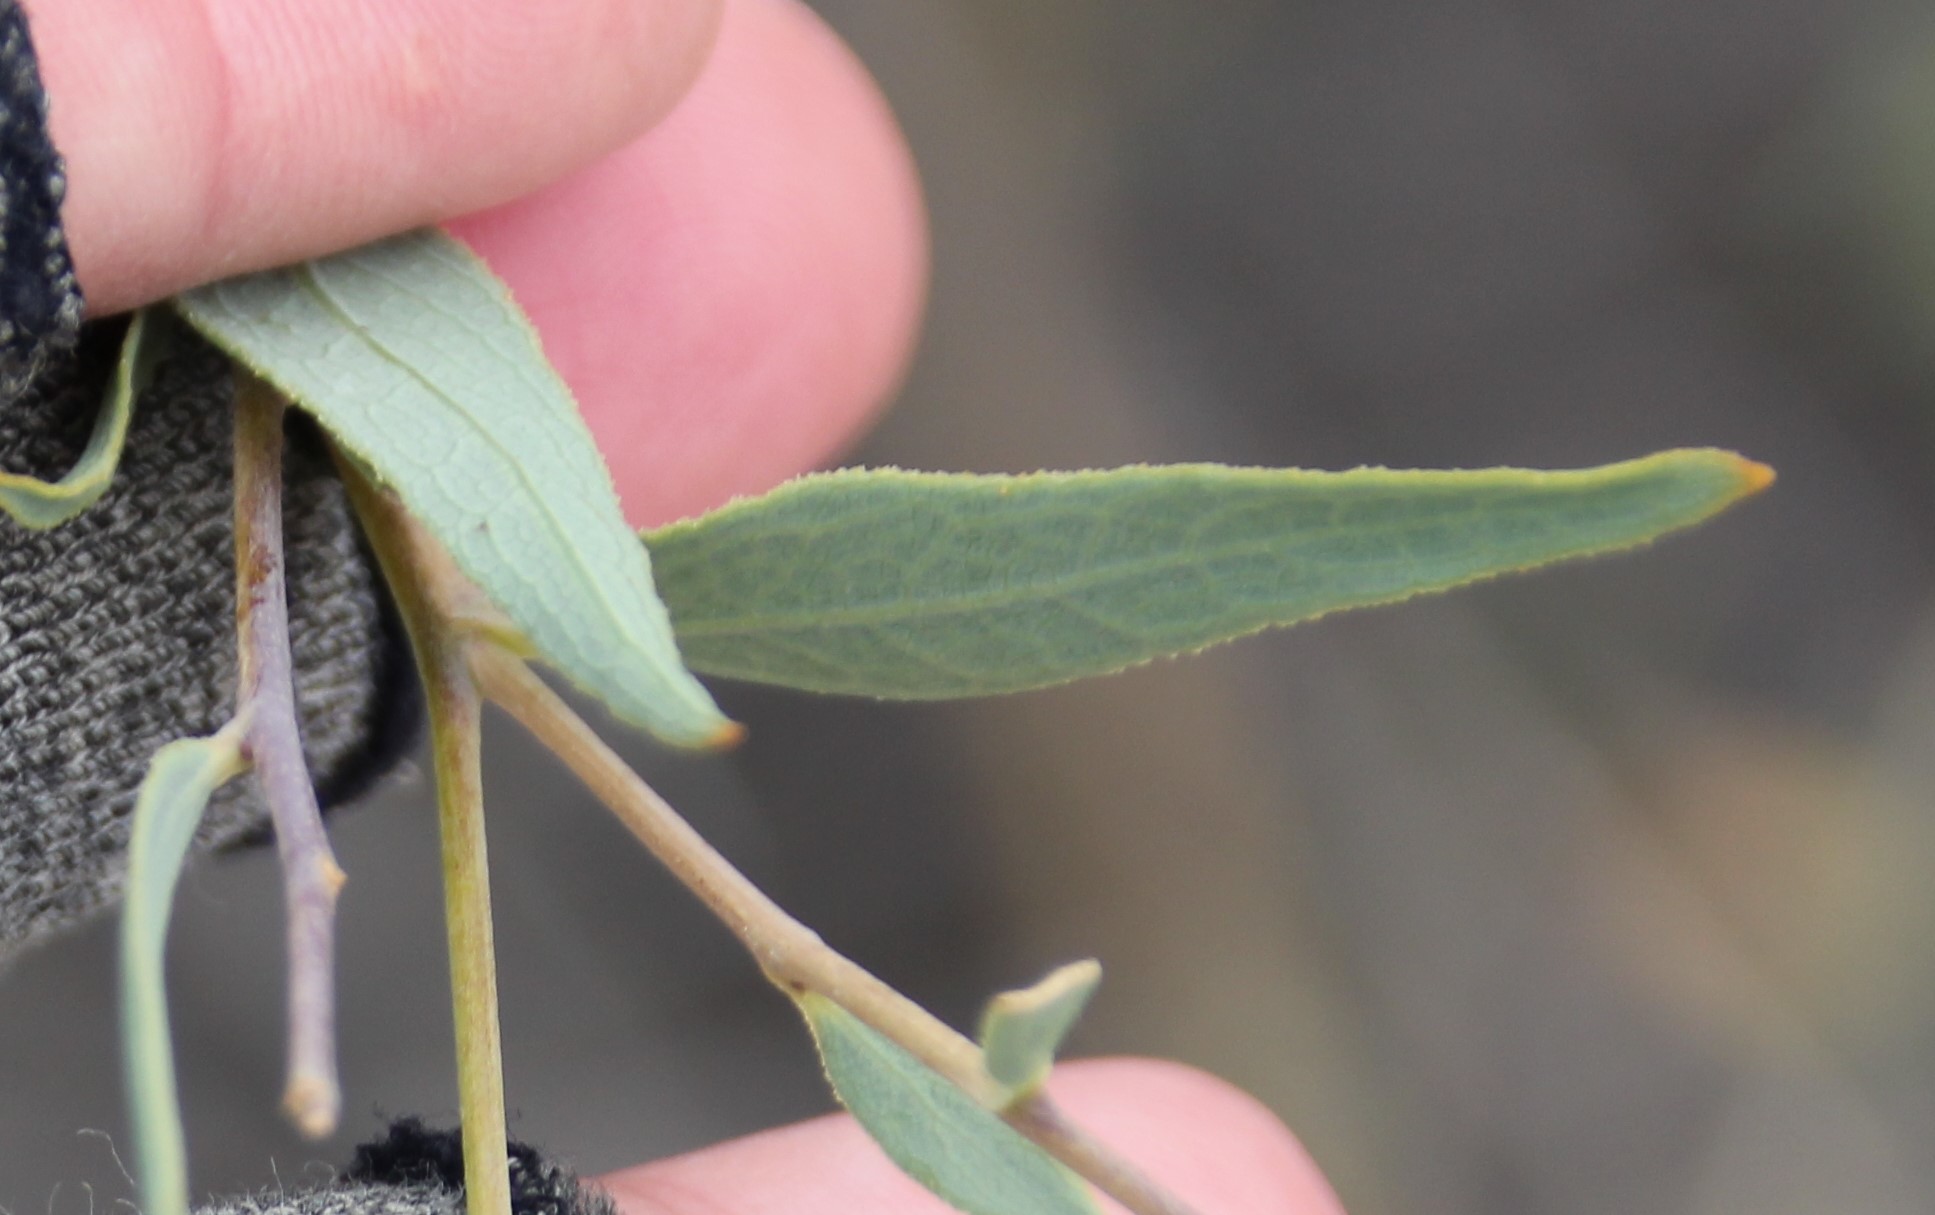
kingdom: Plantae
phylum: Tracheophyta
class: Magnoliopsida
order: Ranunculales
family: Papaveraceae
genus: Dendromecon
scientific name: Dendromecon rigida
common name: Tree poppy
